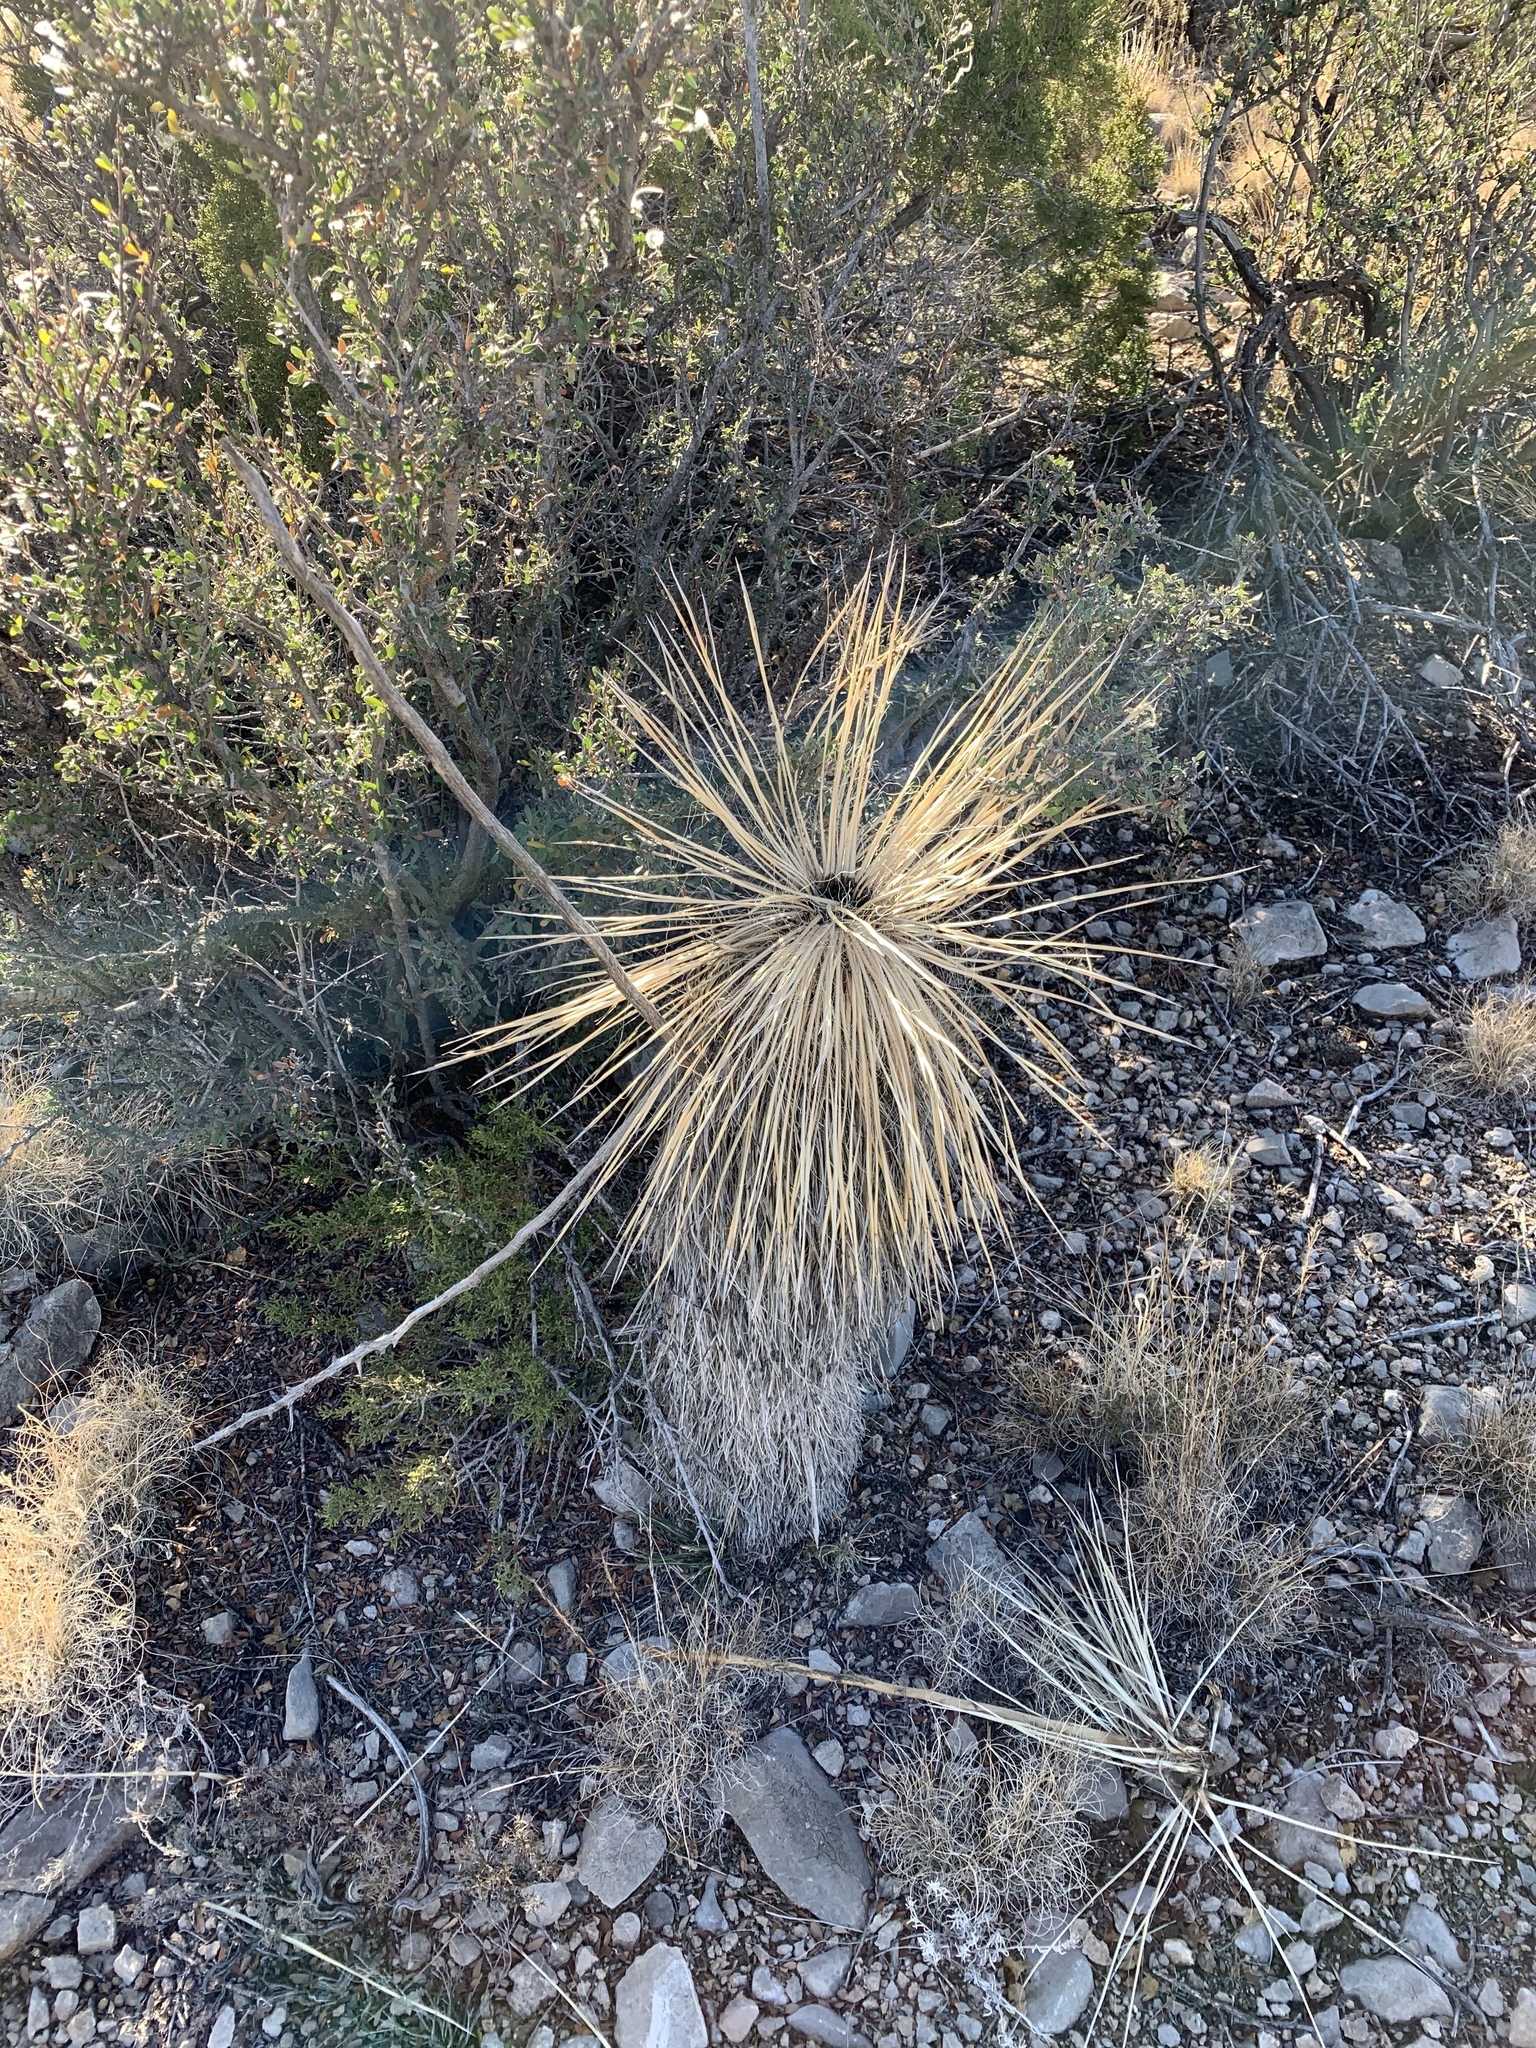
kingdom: Plantae
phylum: Tracheophyta
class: Liliopsida
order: Asparagales
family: Asparagaceae
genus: Yucca
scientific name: Yucca elata
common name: Palmella
